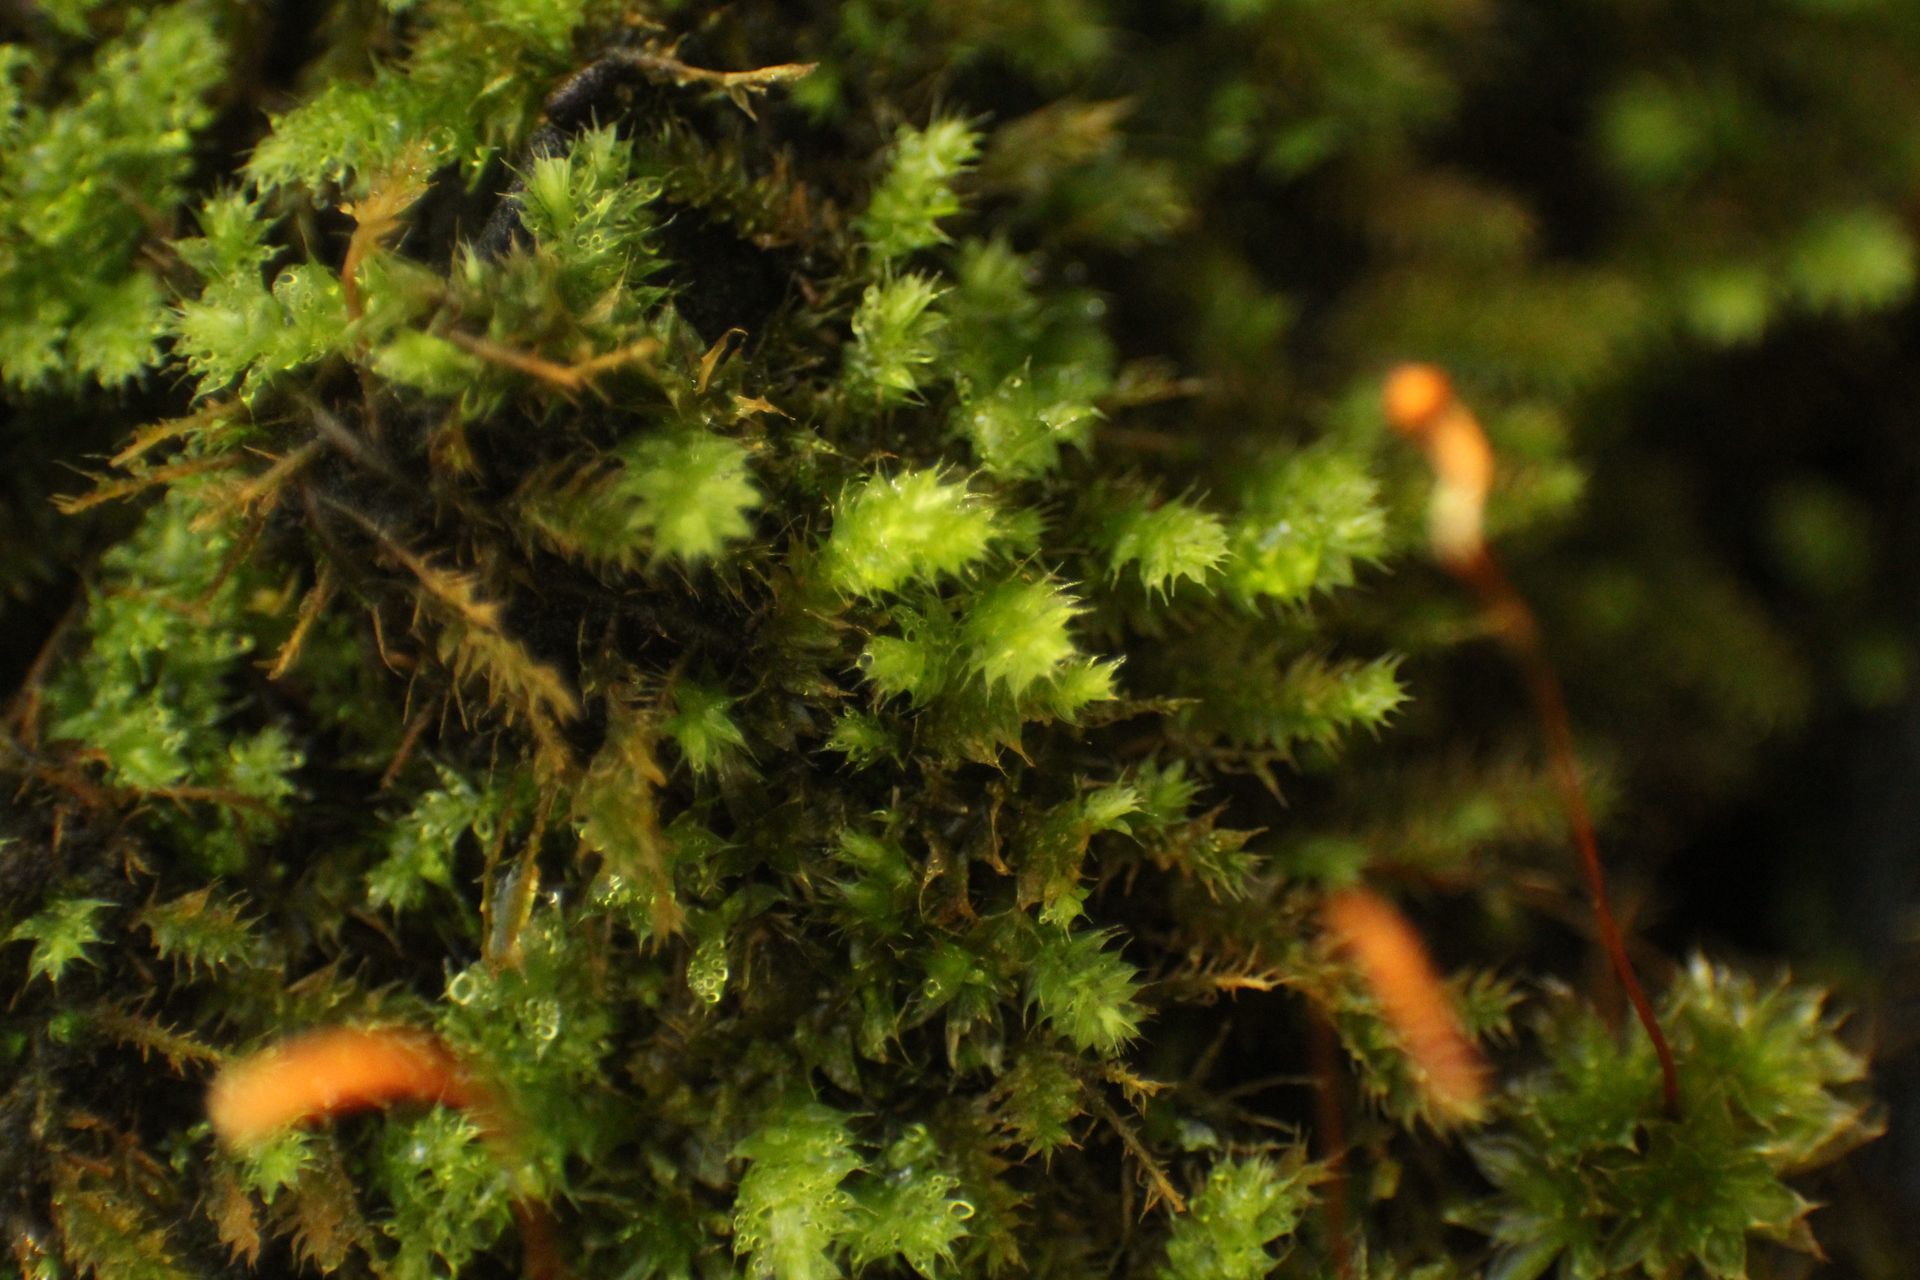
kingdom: Plantae
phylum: Bryophyta
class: Bryopsida
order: Hypnodendrales
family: Racopilaceae
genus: Racopilum
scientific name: Racopilum cuspidigerum
